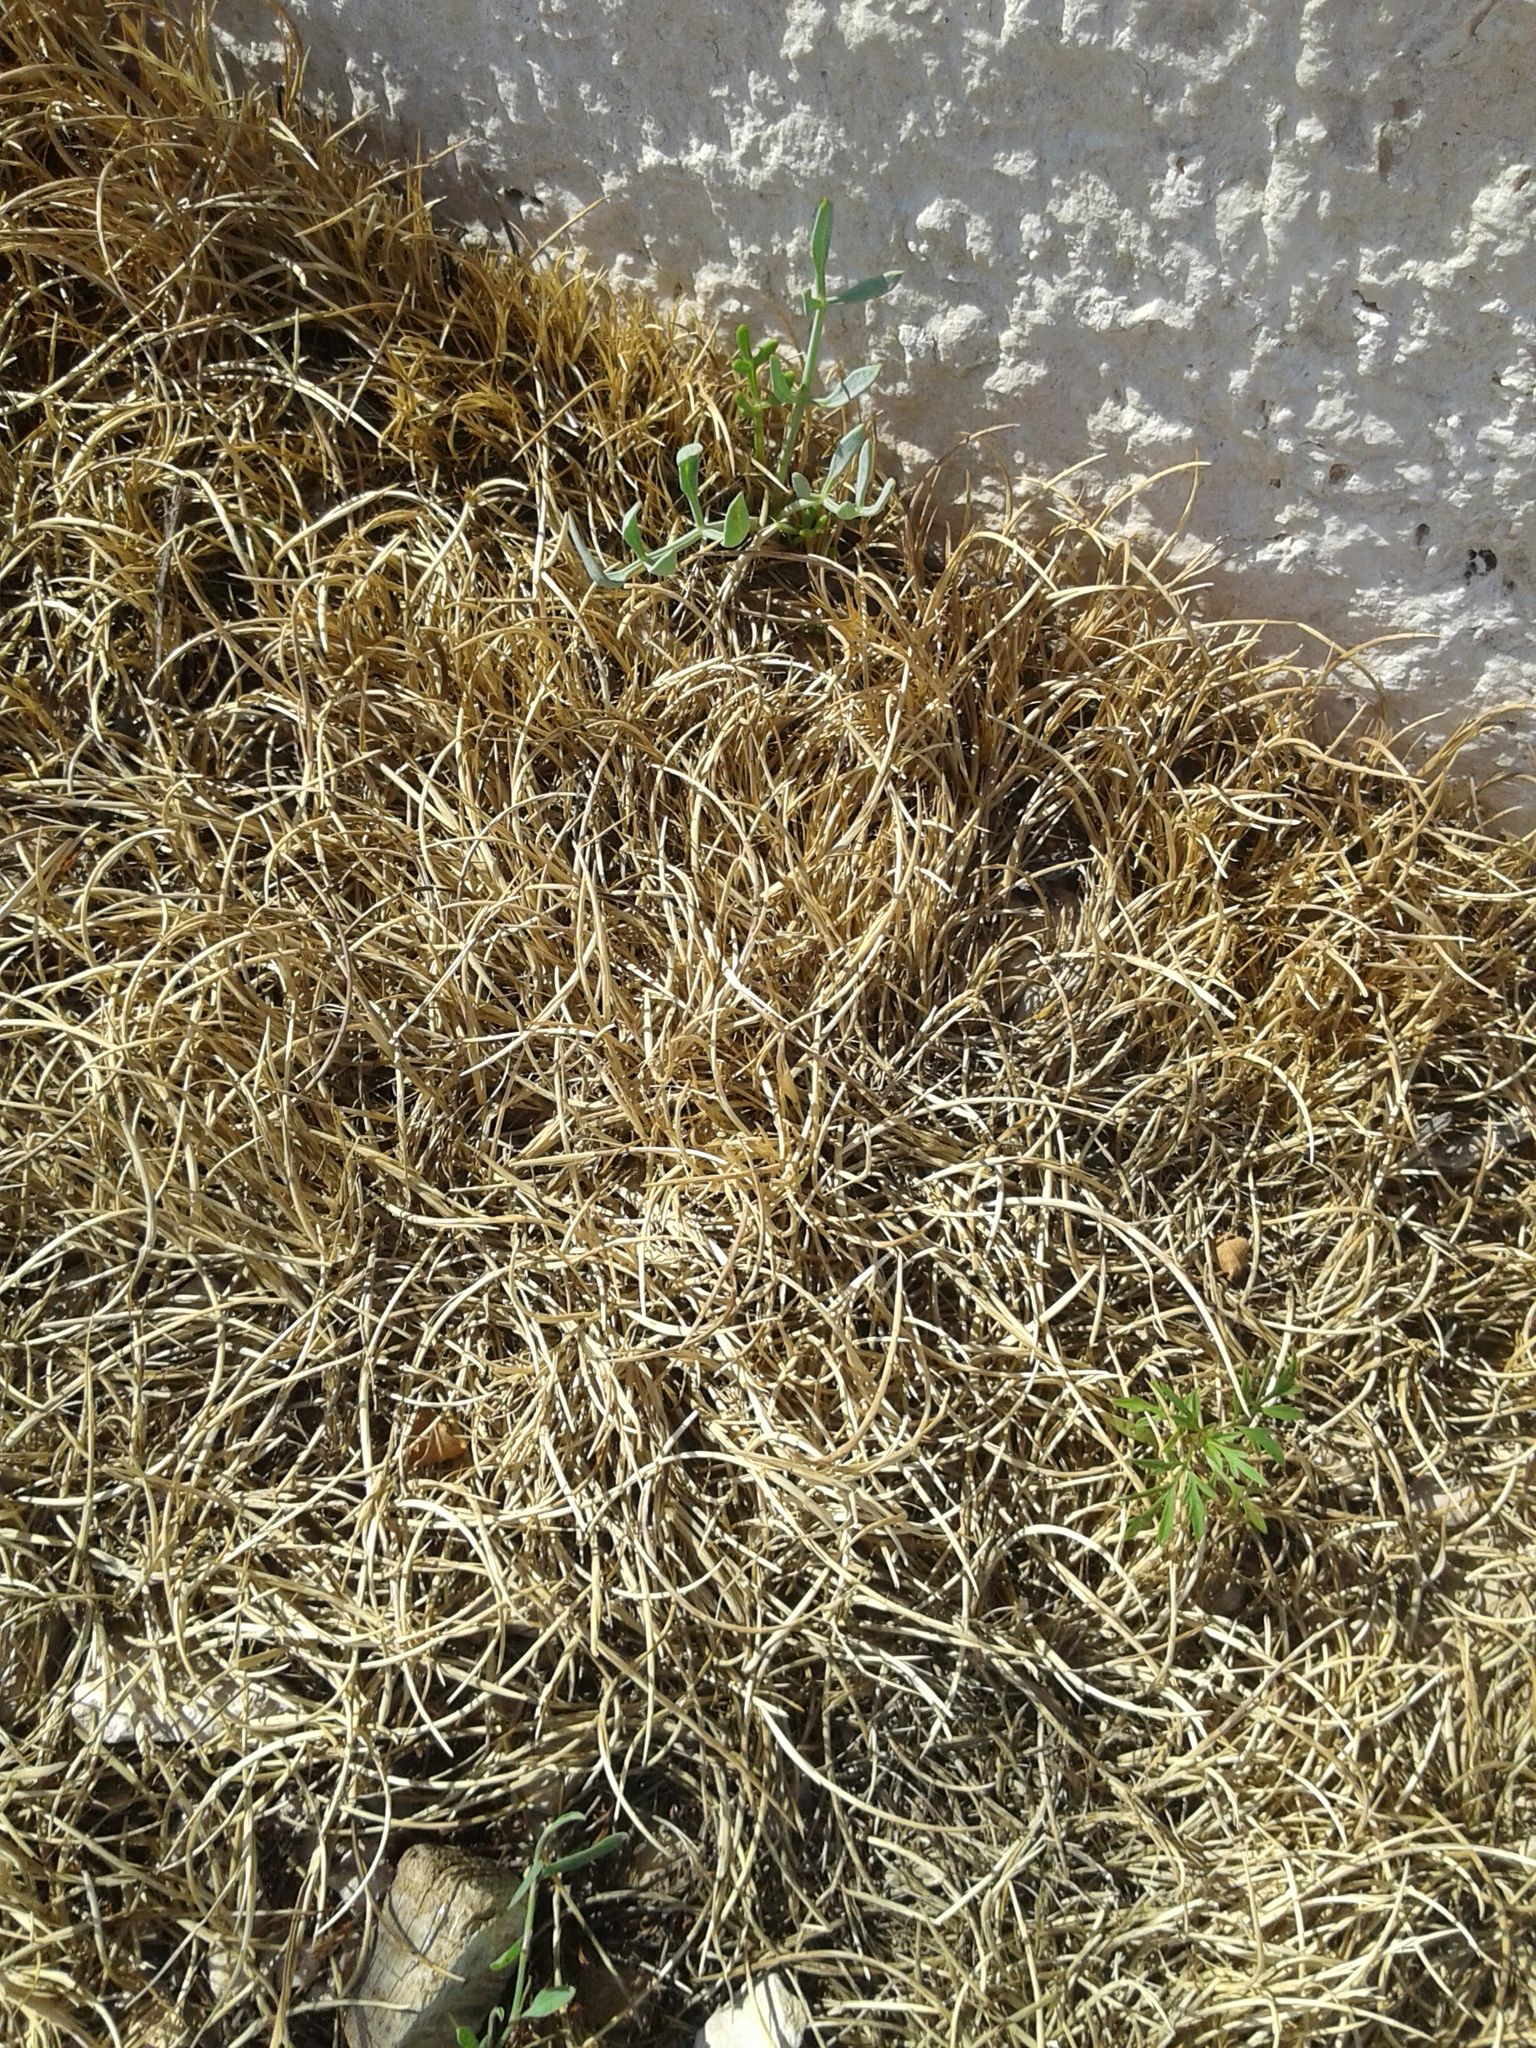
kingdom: Plantae
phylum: Tracheophyta
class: Liliopsida
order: Poales
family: Poaceae
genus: Parapholis
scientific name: Parapholis incurva
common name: Curved sicklegrass
